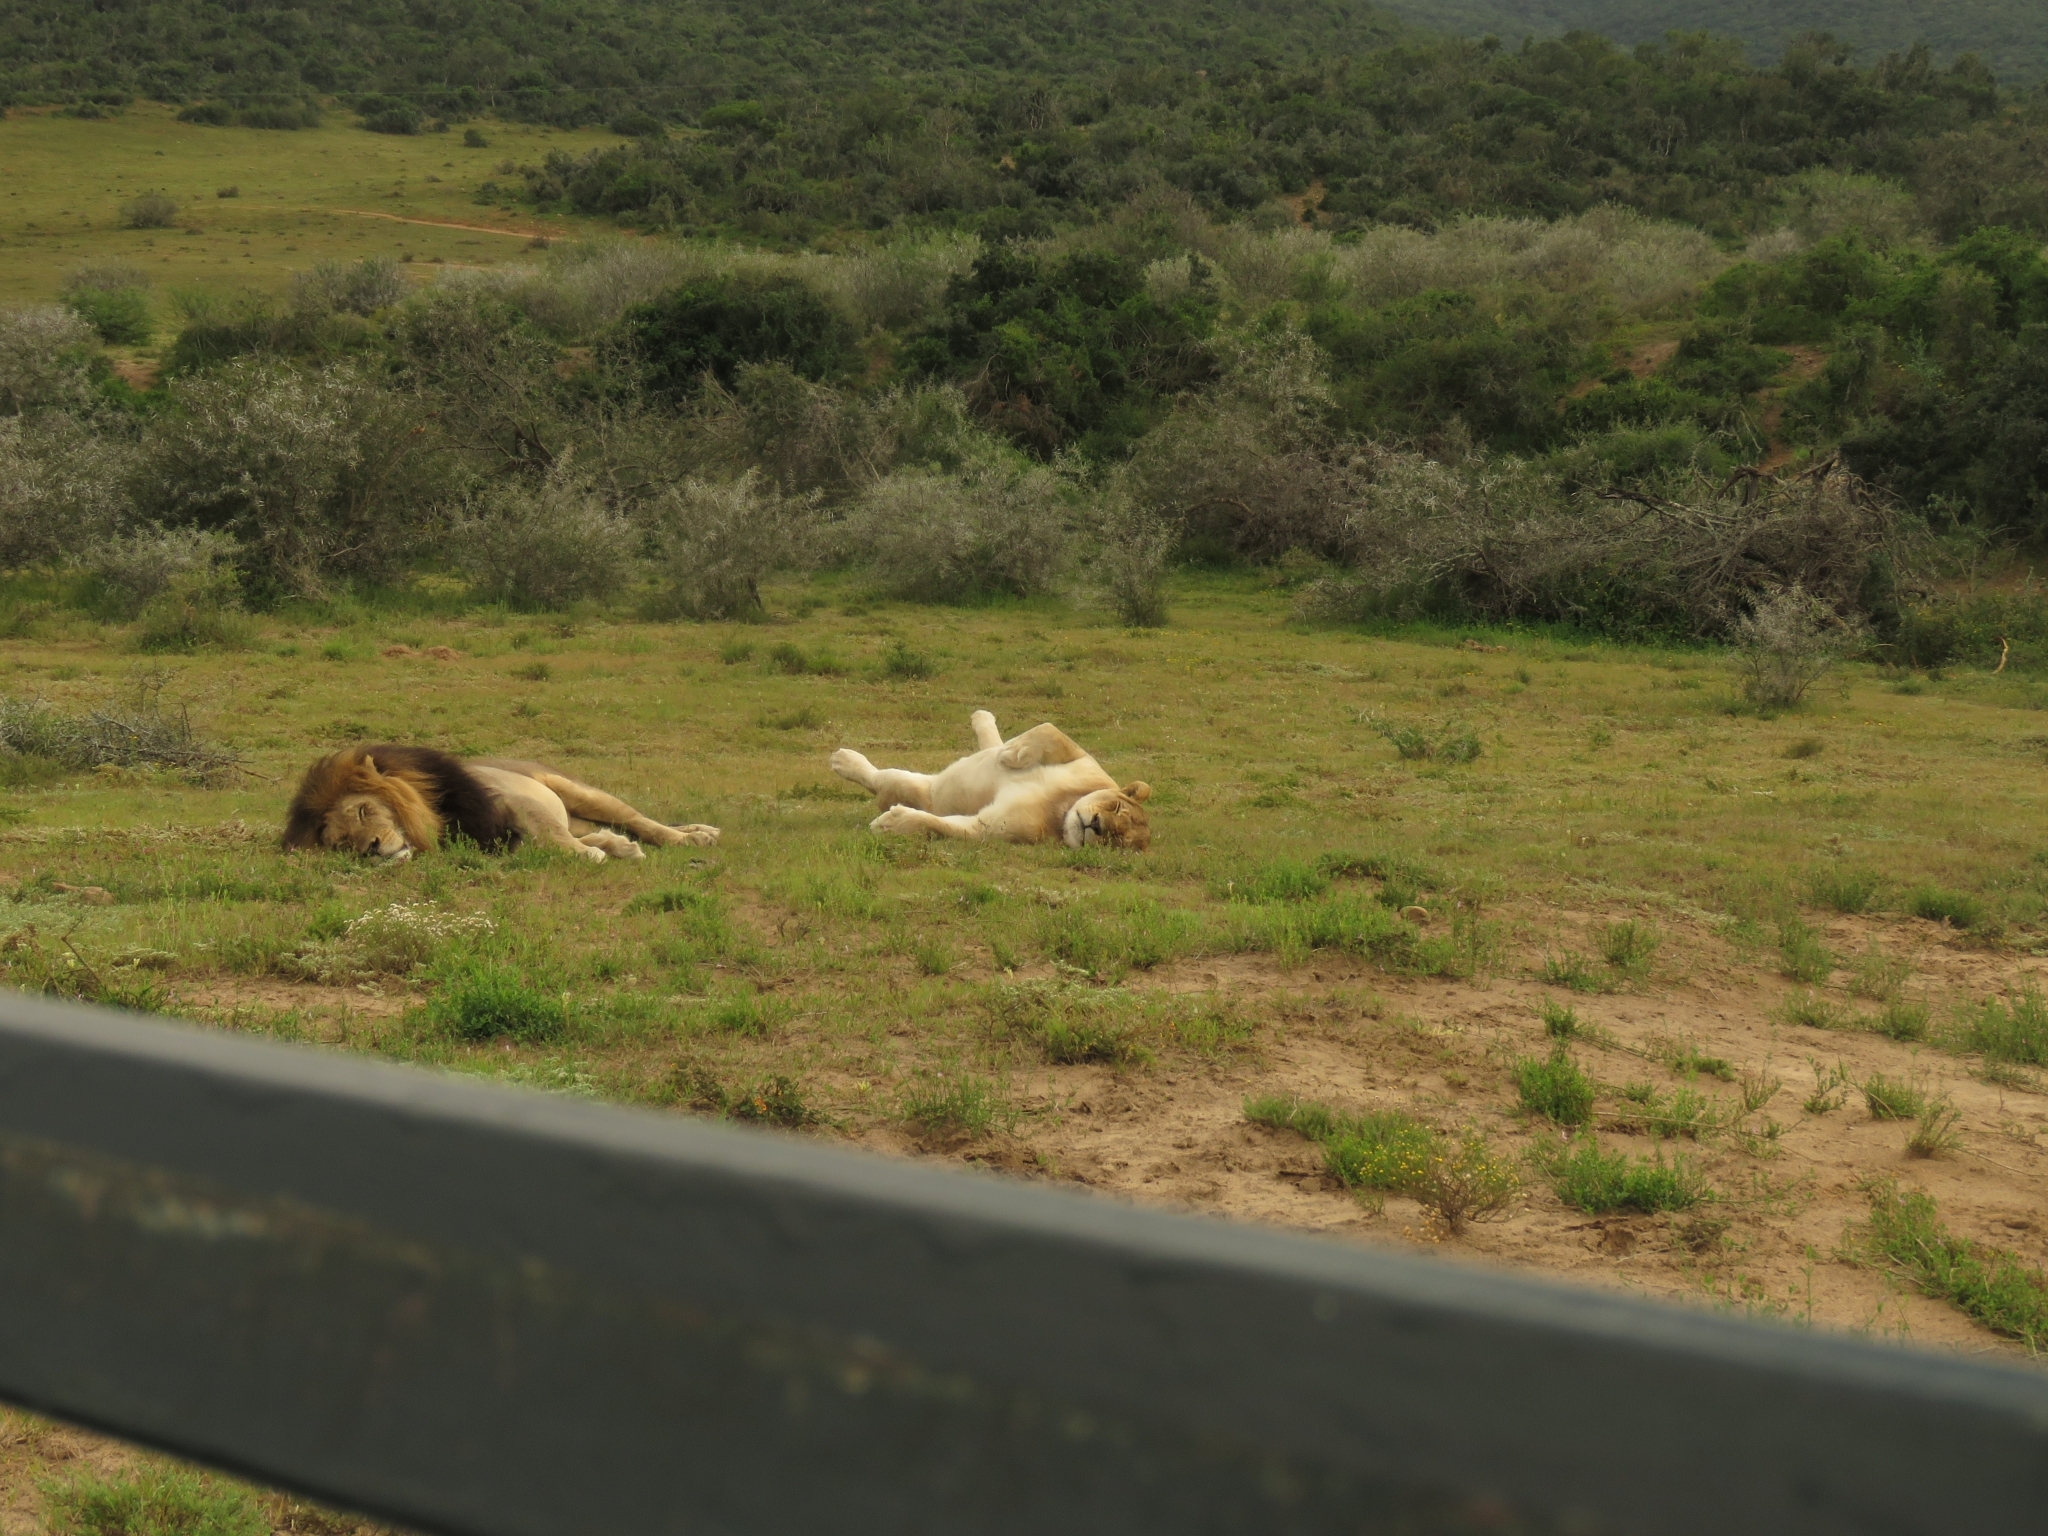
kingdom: Animalia
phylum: Chordata
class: Mammalia
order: Carnivora
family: Felidae
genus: Panthera
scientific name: Panthera leo
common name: Lion
